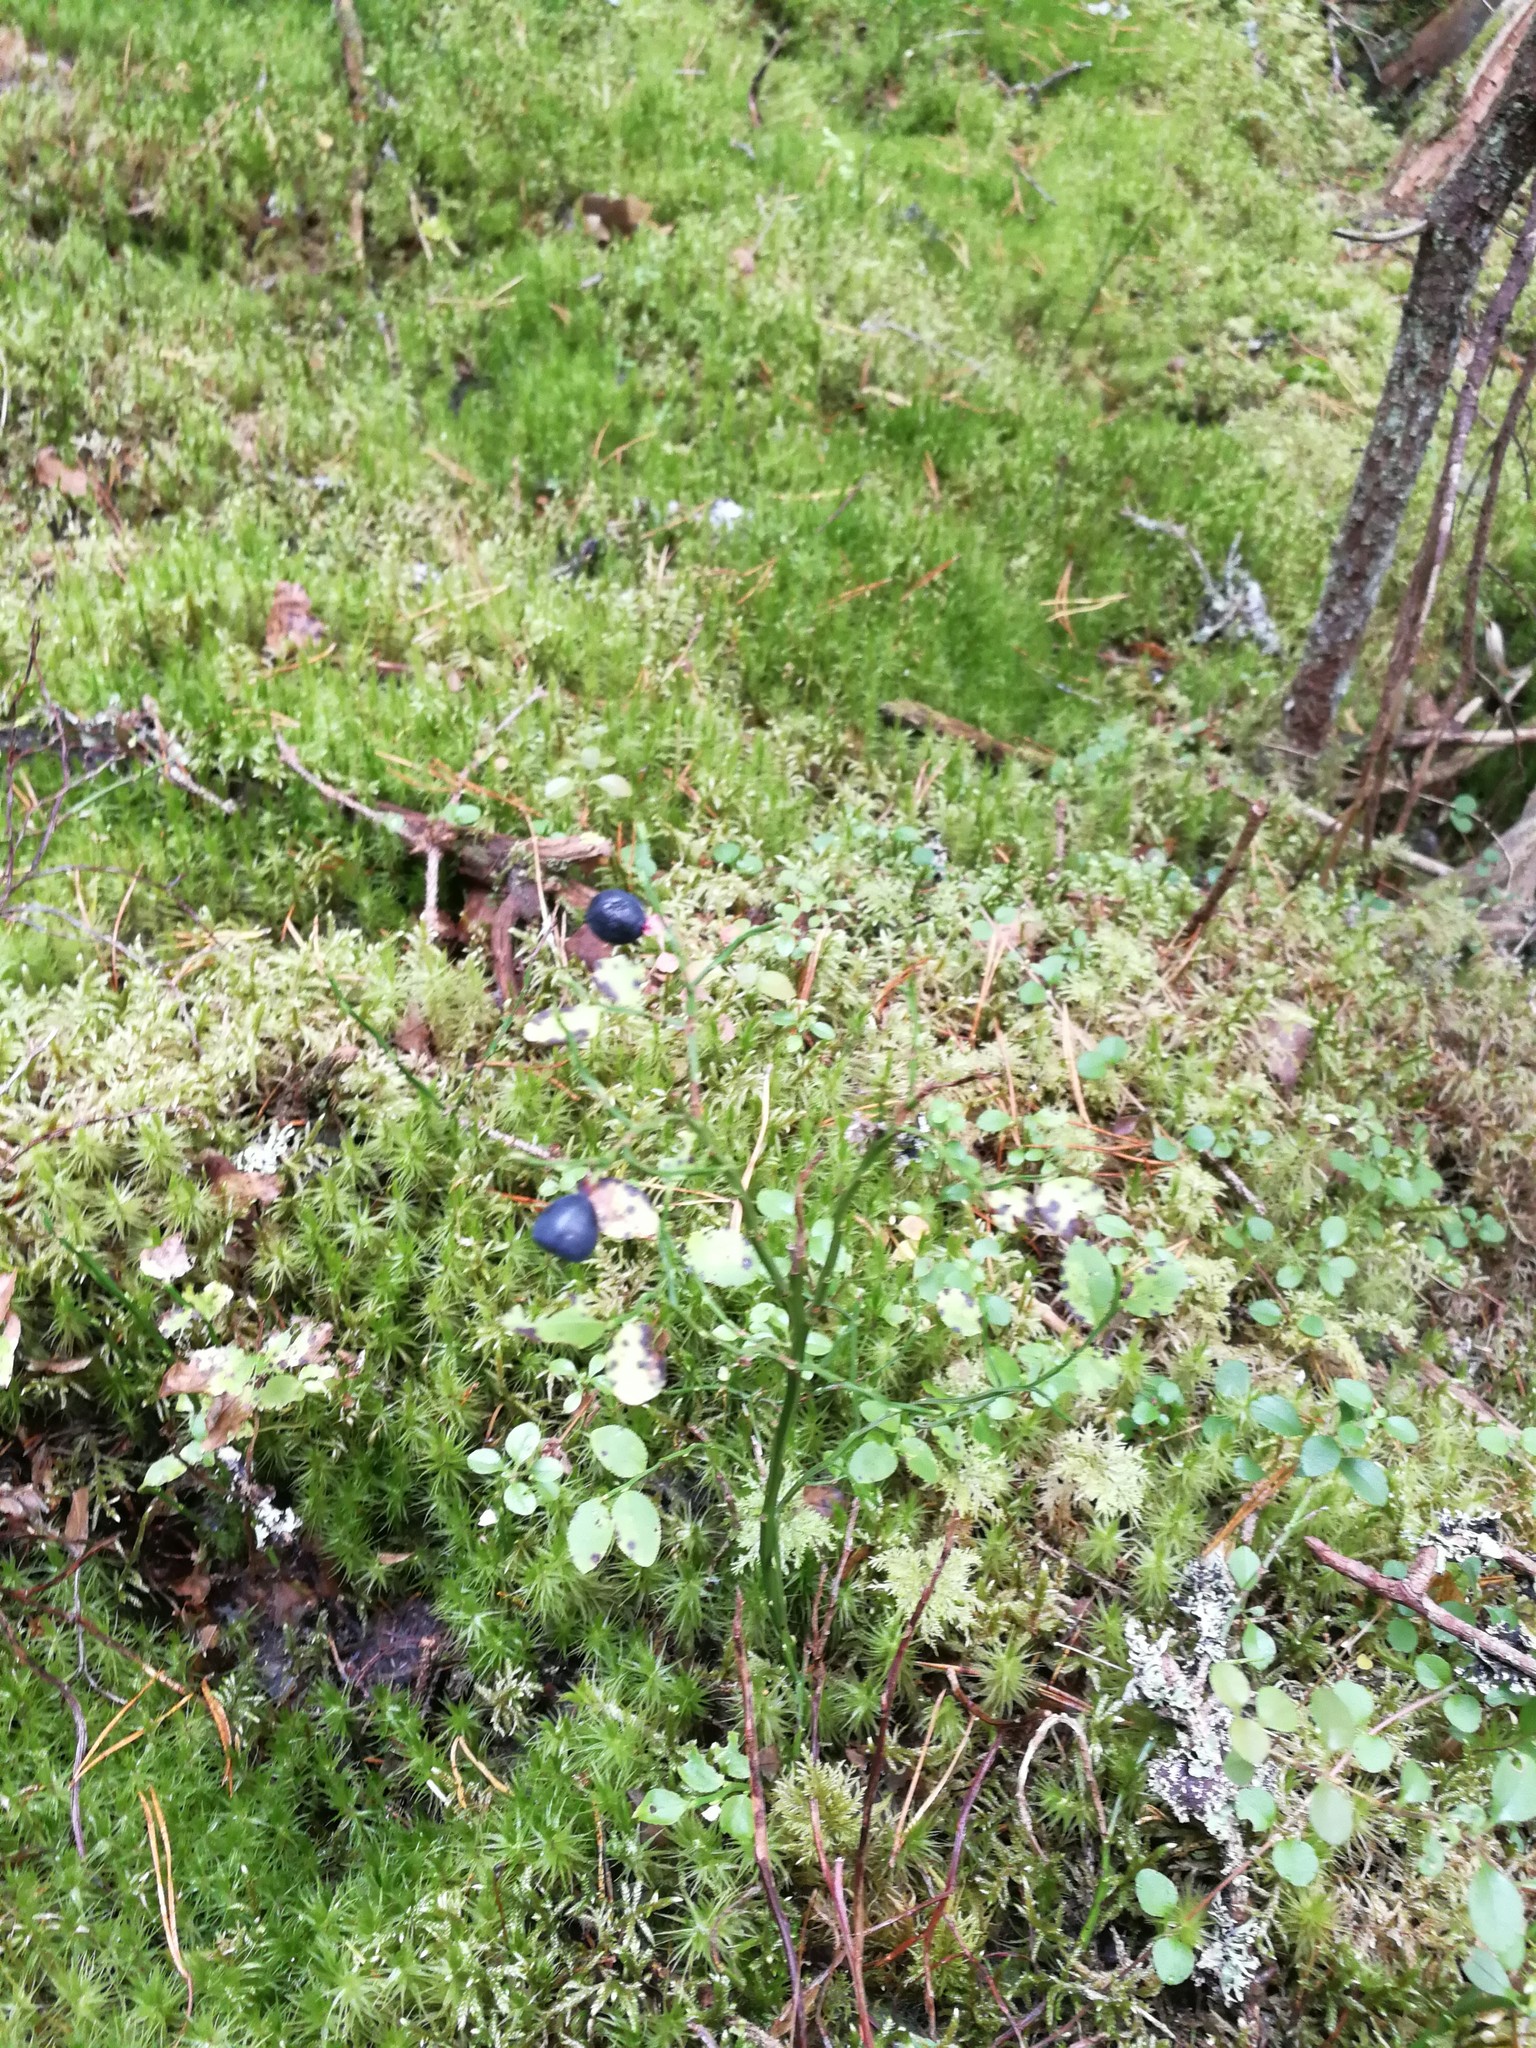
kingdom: Plantae
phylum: Tracheophyta
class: Magnoliopsida
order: Ericales
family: Ericaceae
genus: Vaccinium
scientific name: Vaccinium myrtillus
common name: Bilberry
